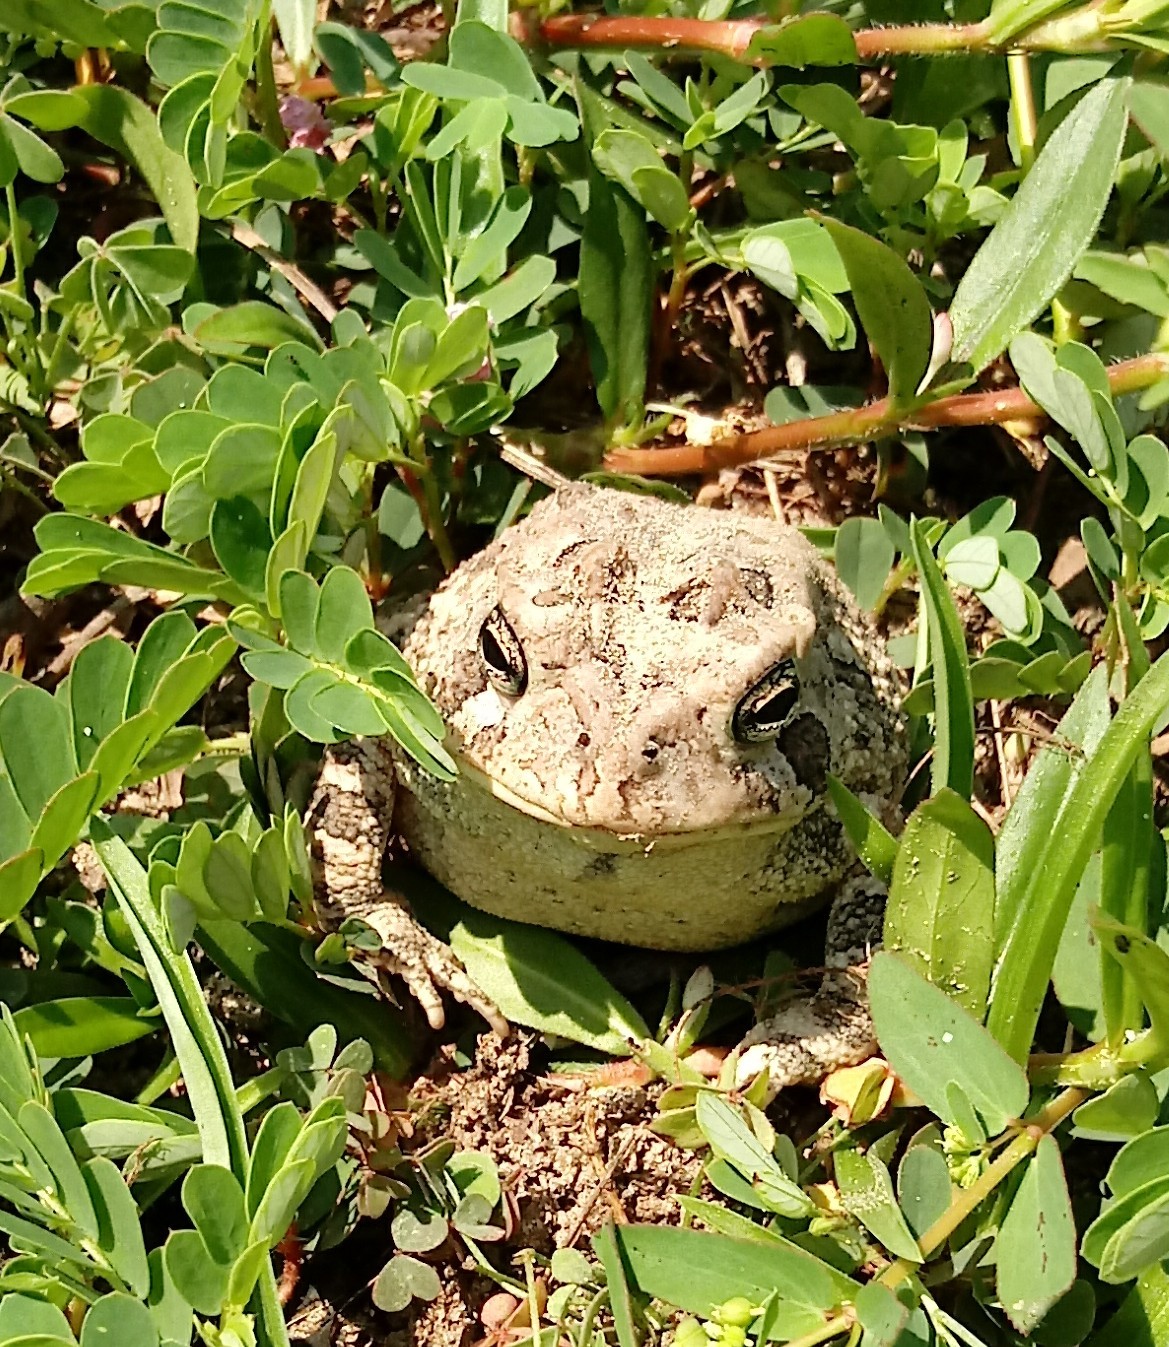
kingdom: Animalia
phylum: Chordata
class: Amphibia
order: Anura
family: Bufonidae
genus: Anaxyrus
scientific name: Anaxyrus terrestris
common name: Southern toad
